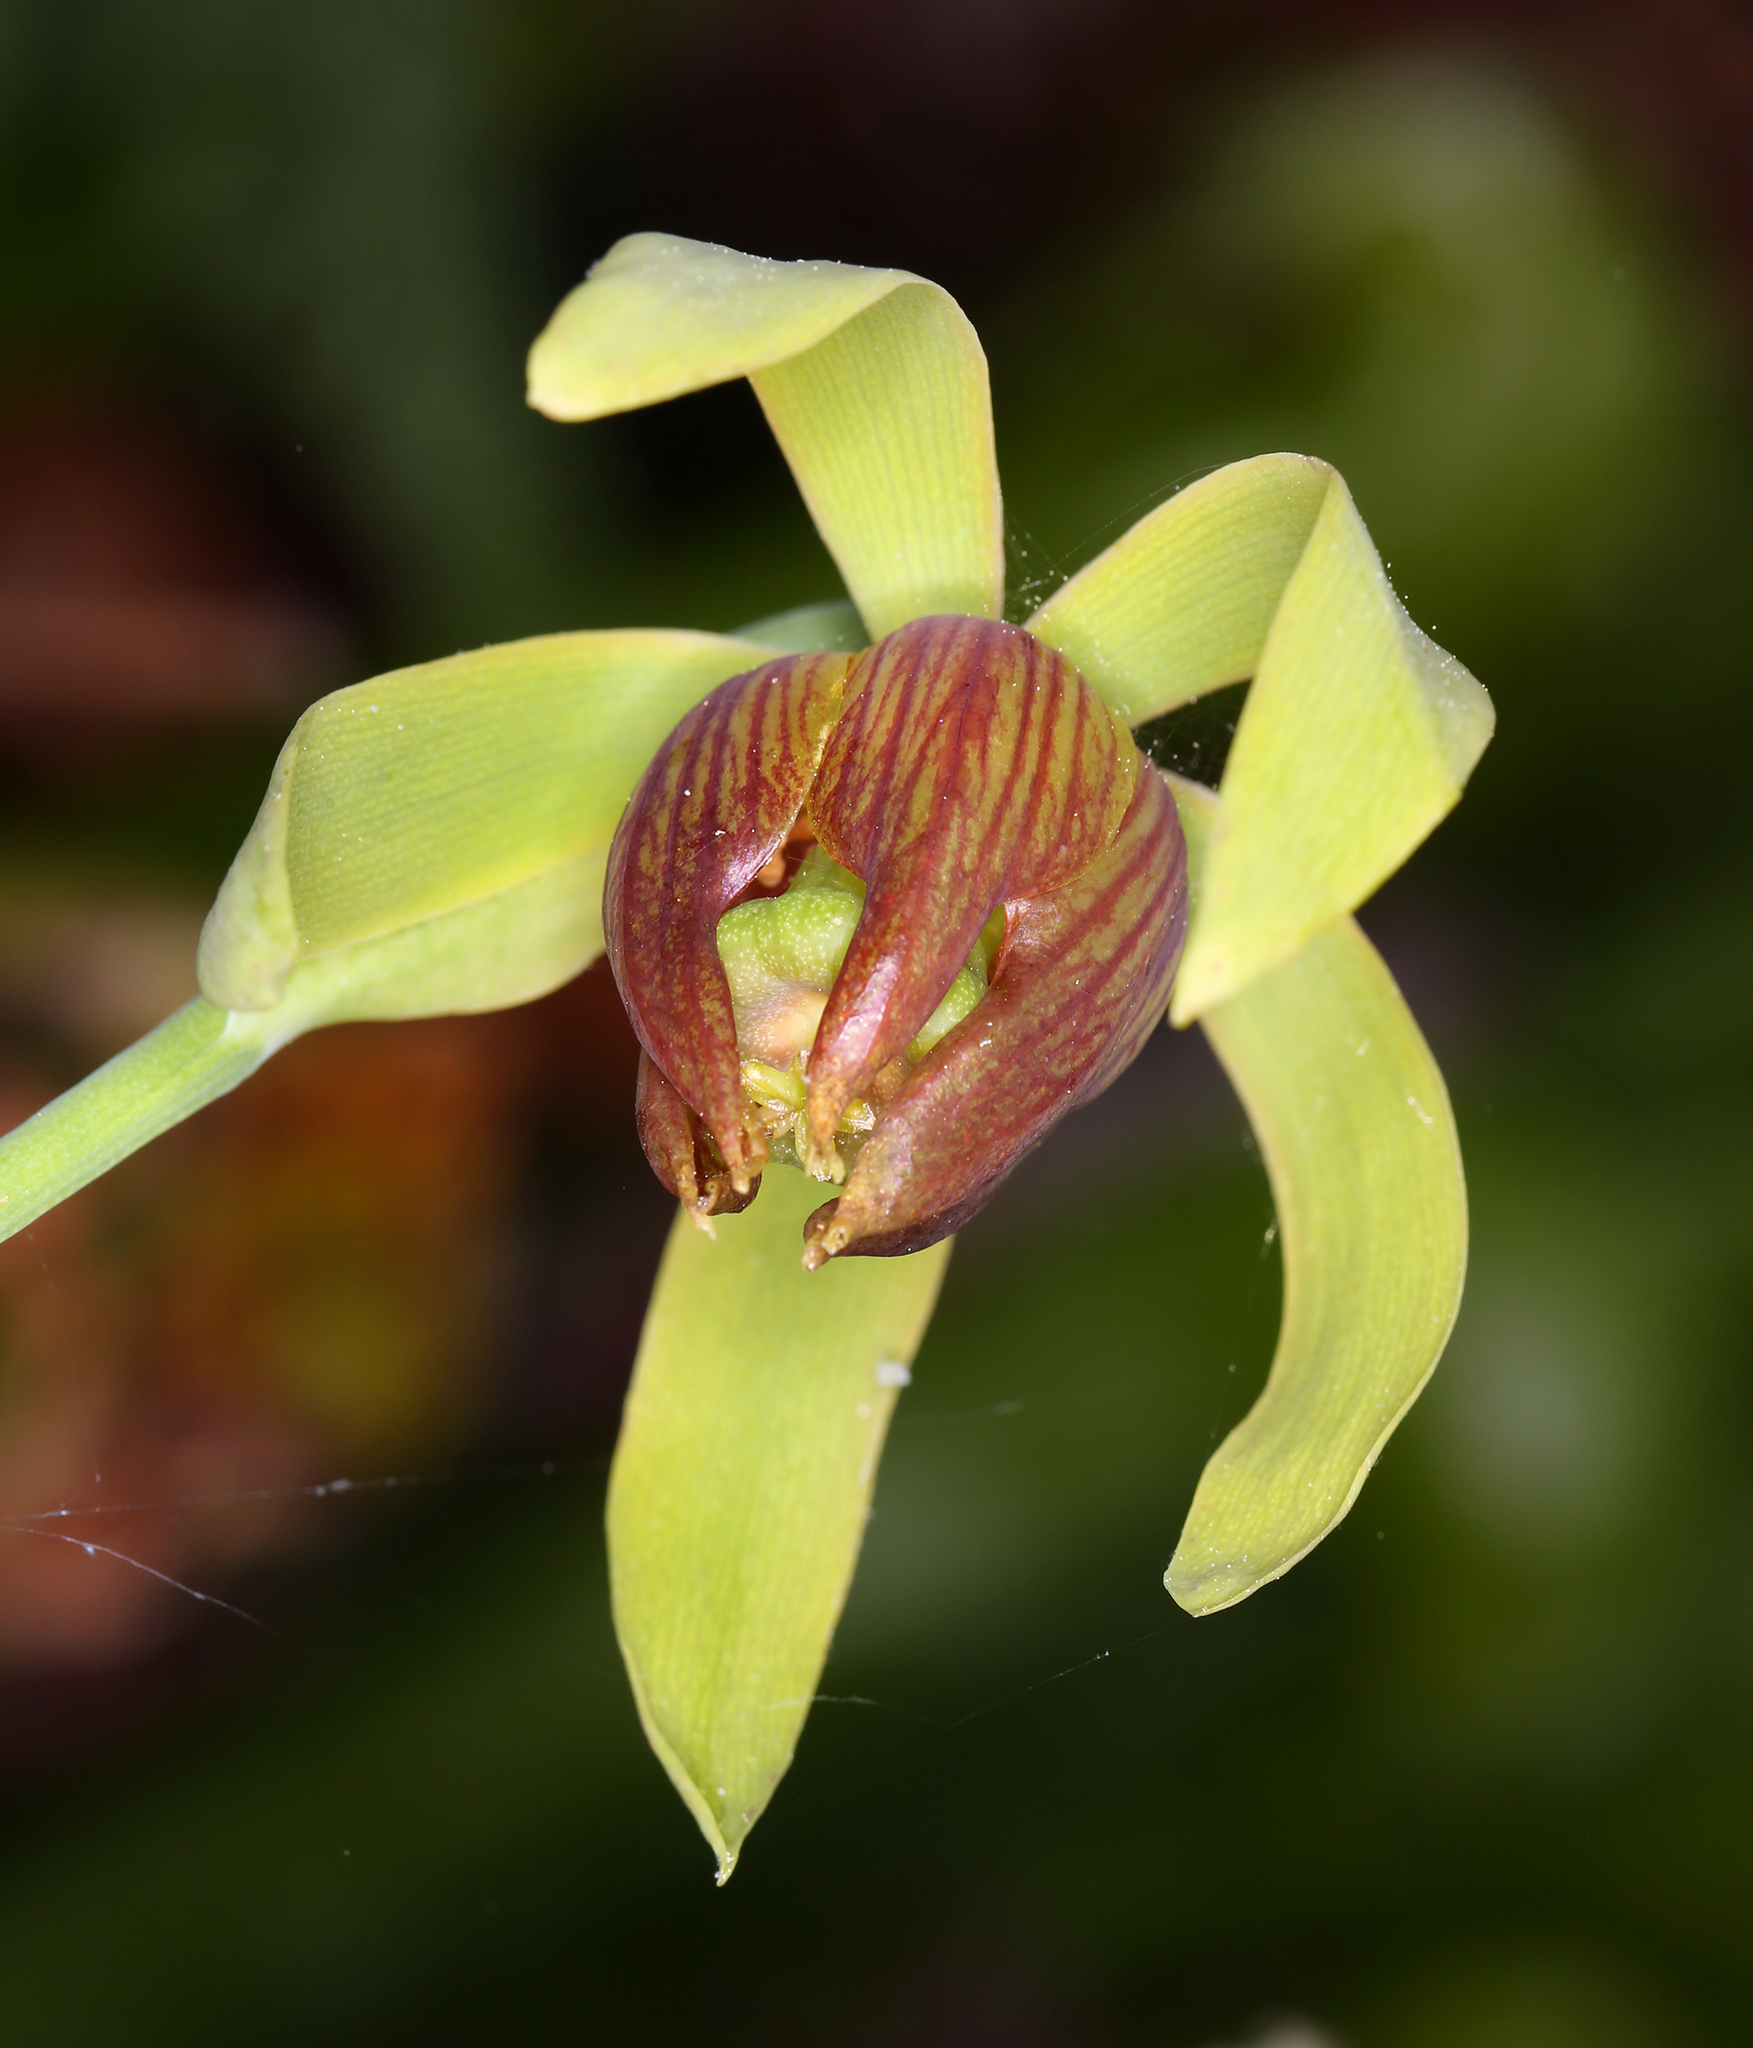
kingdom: Plantae
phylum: Tracheophyta
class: Magnoliopsida
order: Ericales
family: Sarraceniaceae
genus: Darlingtonia
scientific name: Darlingtonia californica
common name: California pitcher plant
